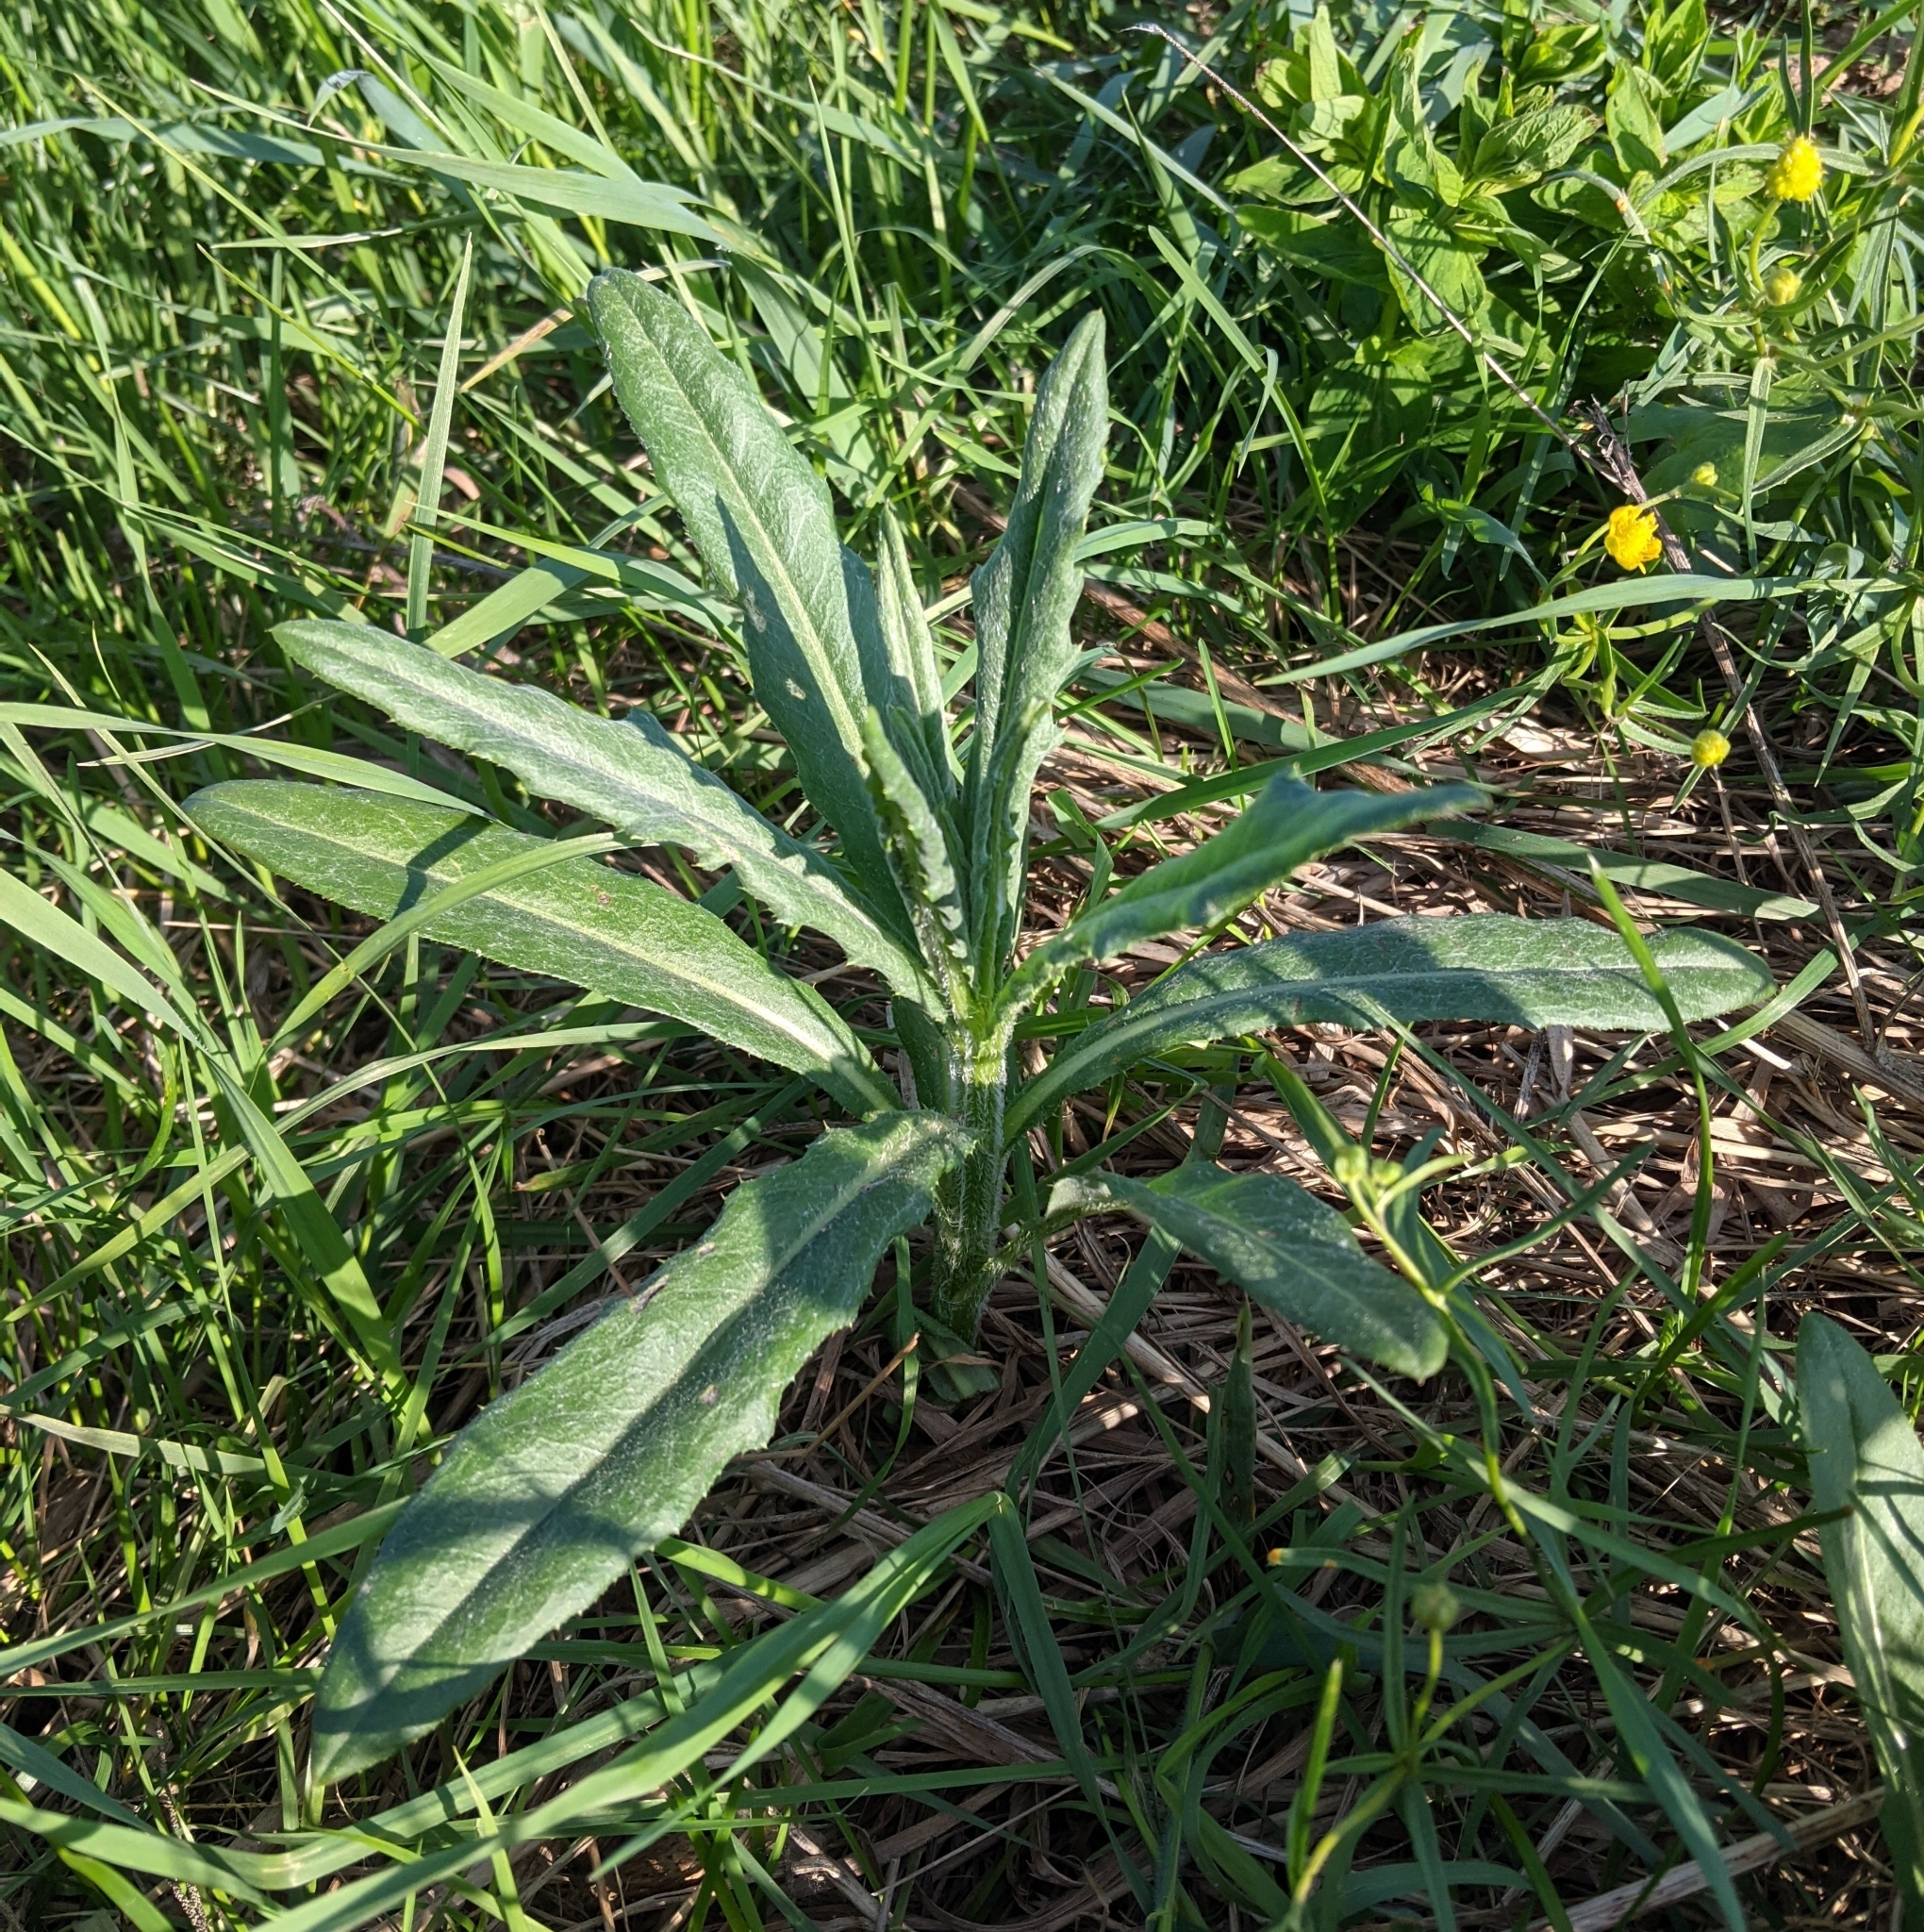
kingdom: Plantae
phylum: Tracheophyta
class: Magnoliopsida
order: Asterales
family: Asteraceae
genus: Cirsium
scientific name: Cirsium arvense
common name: Creeping thistle
